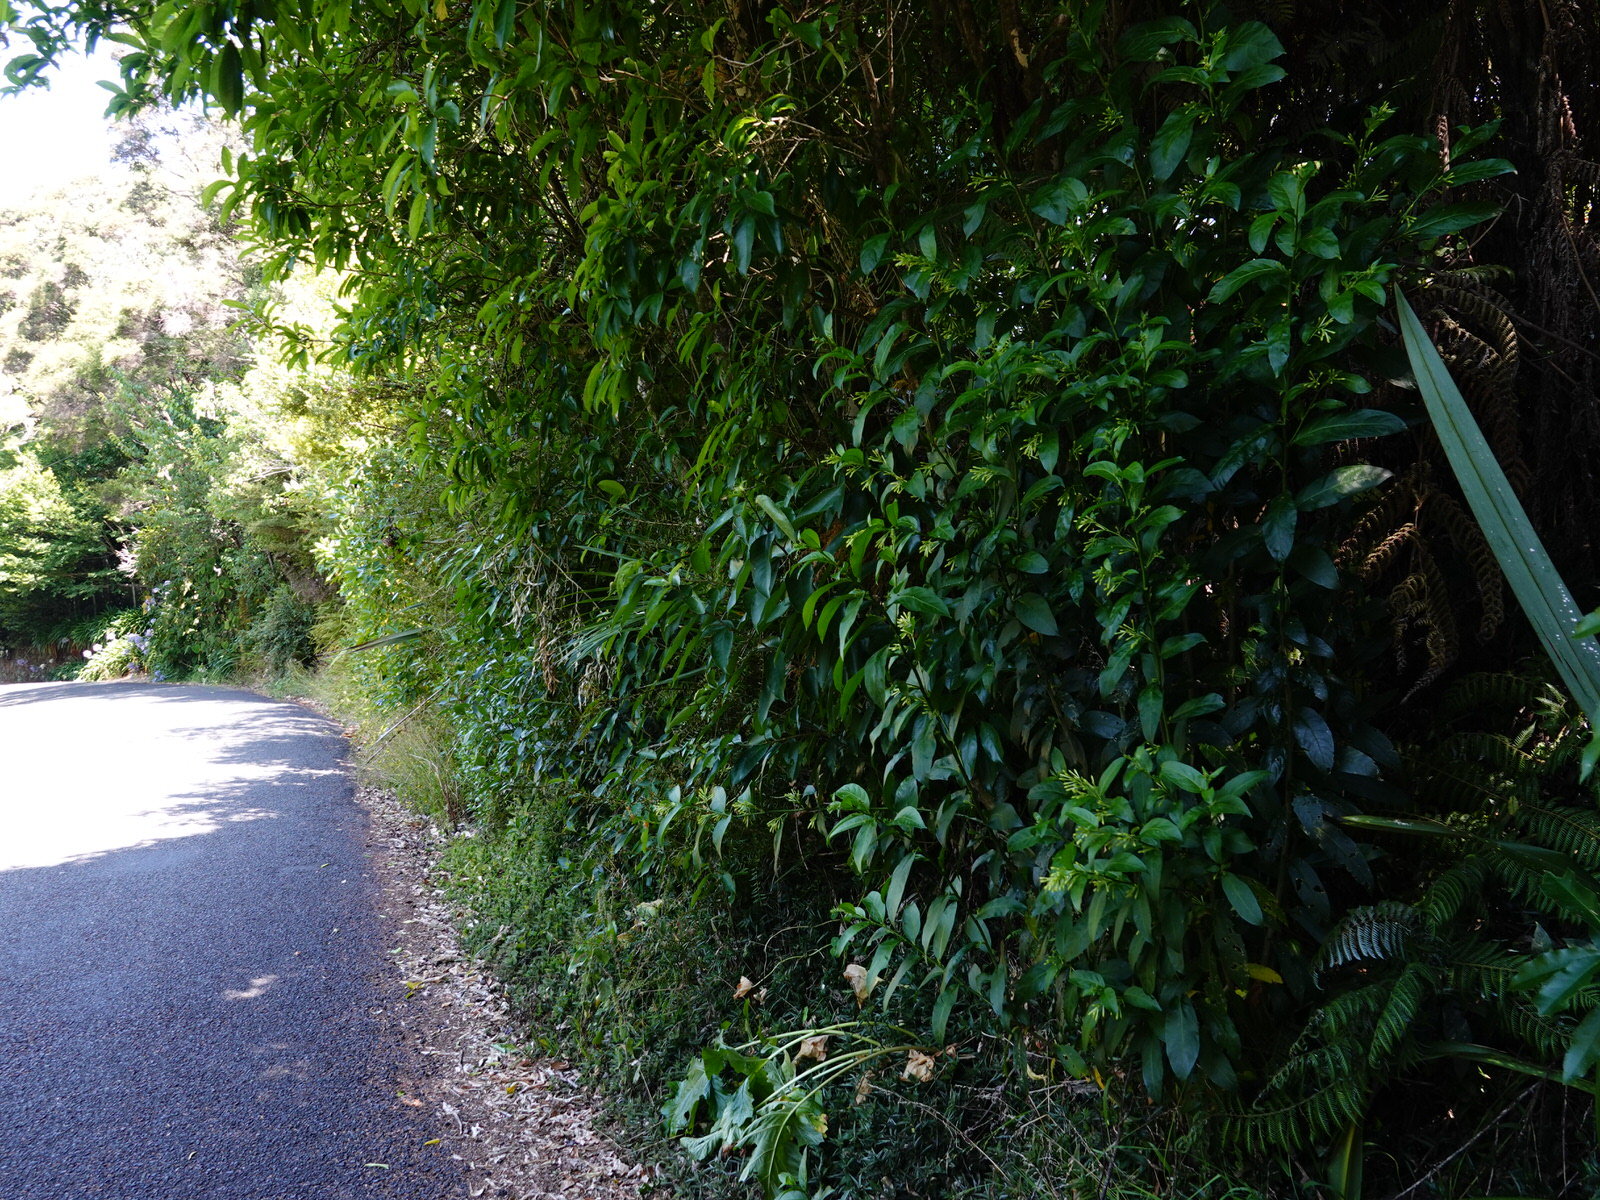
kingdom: Plantae
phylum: Tracheophyta
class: Magnoliopsida
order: Solanales
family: Solanaceae
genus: Cestrum
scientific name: Cestrum nocturnum
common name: Night jessamine
